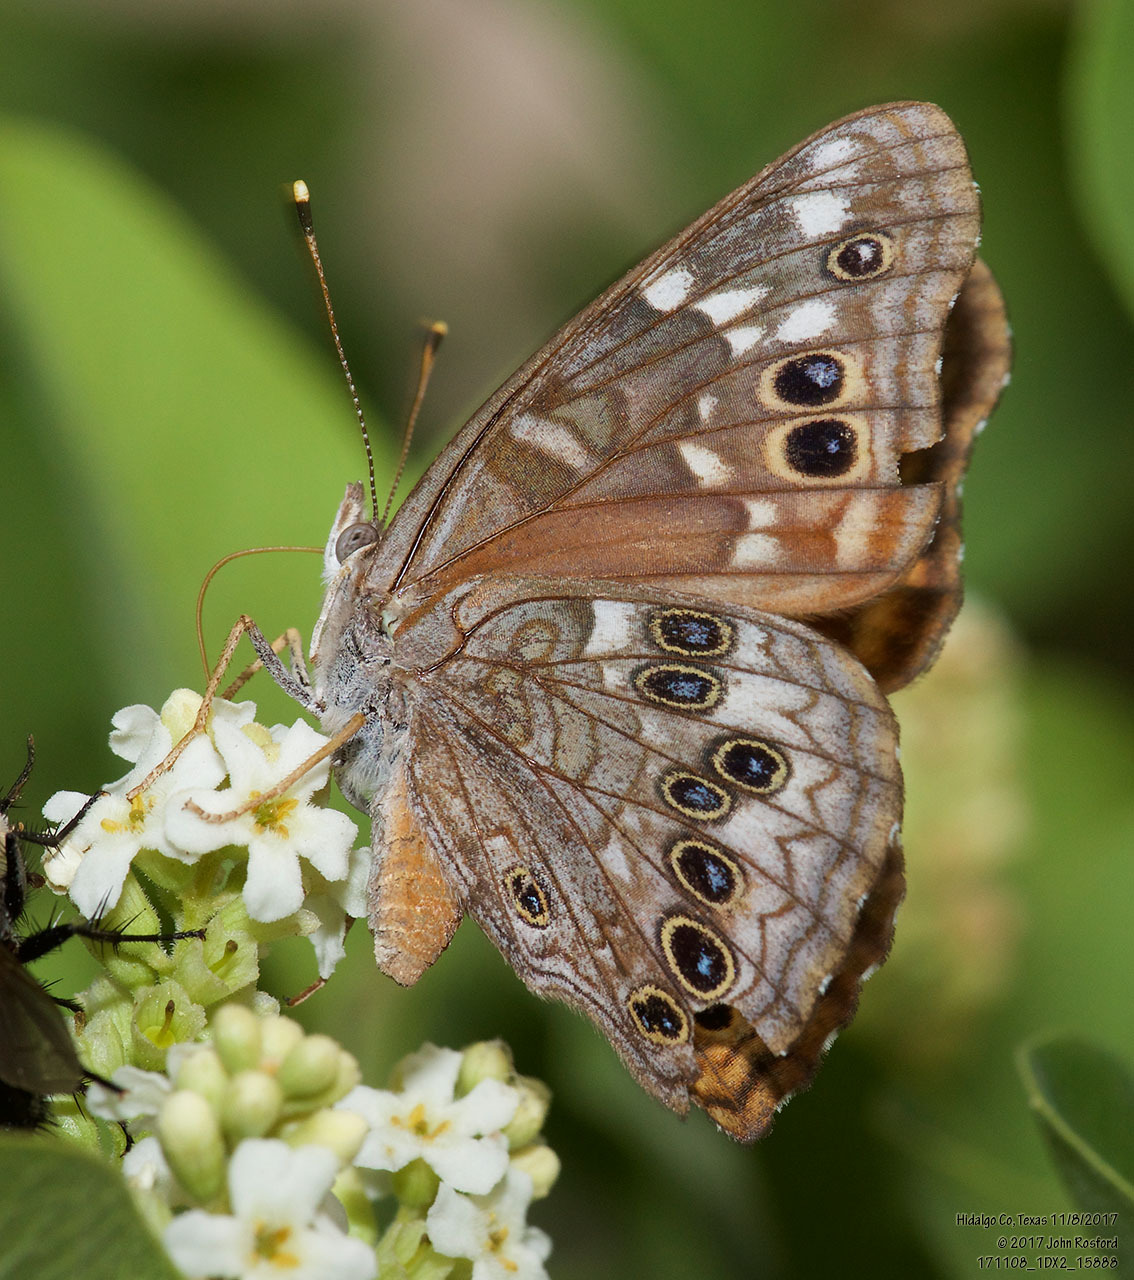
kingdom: Animalia
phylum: Arthropoda
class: Insecta
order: Lepidoptera
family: Nymphalidae
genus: Asterocampa
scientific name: Asterocampa leilia
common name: Empress leilia
